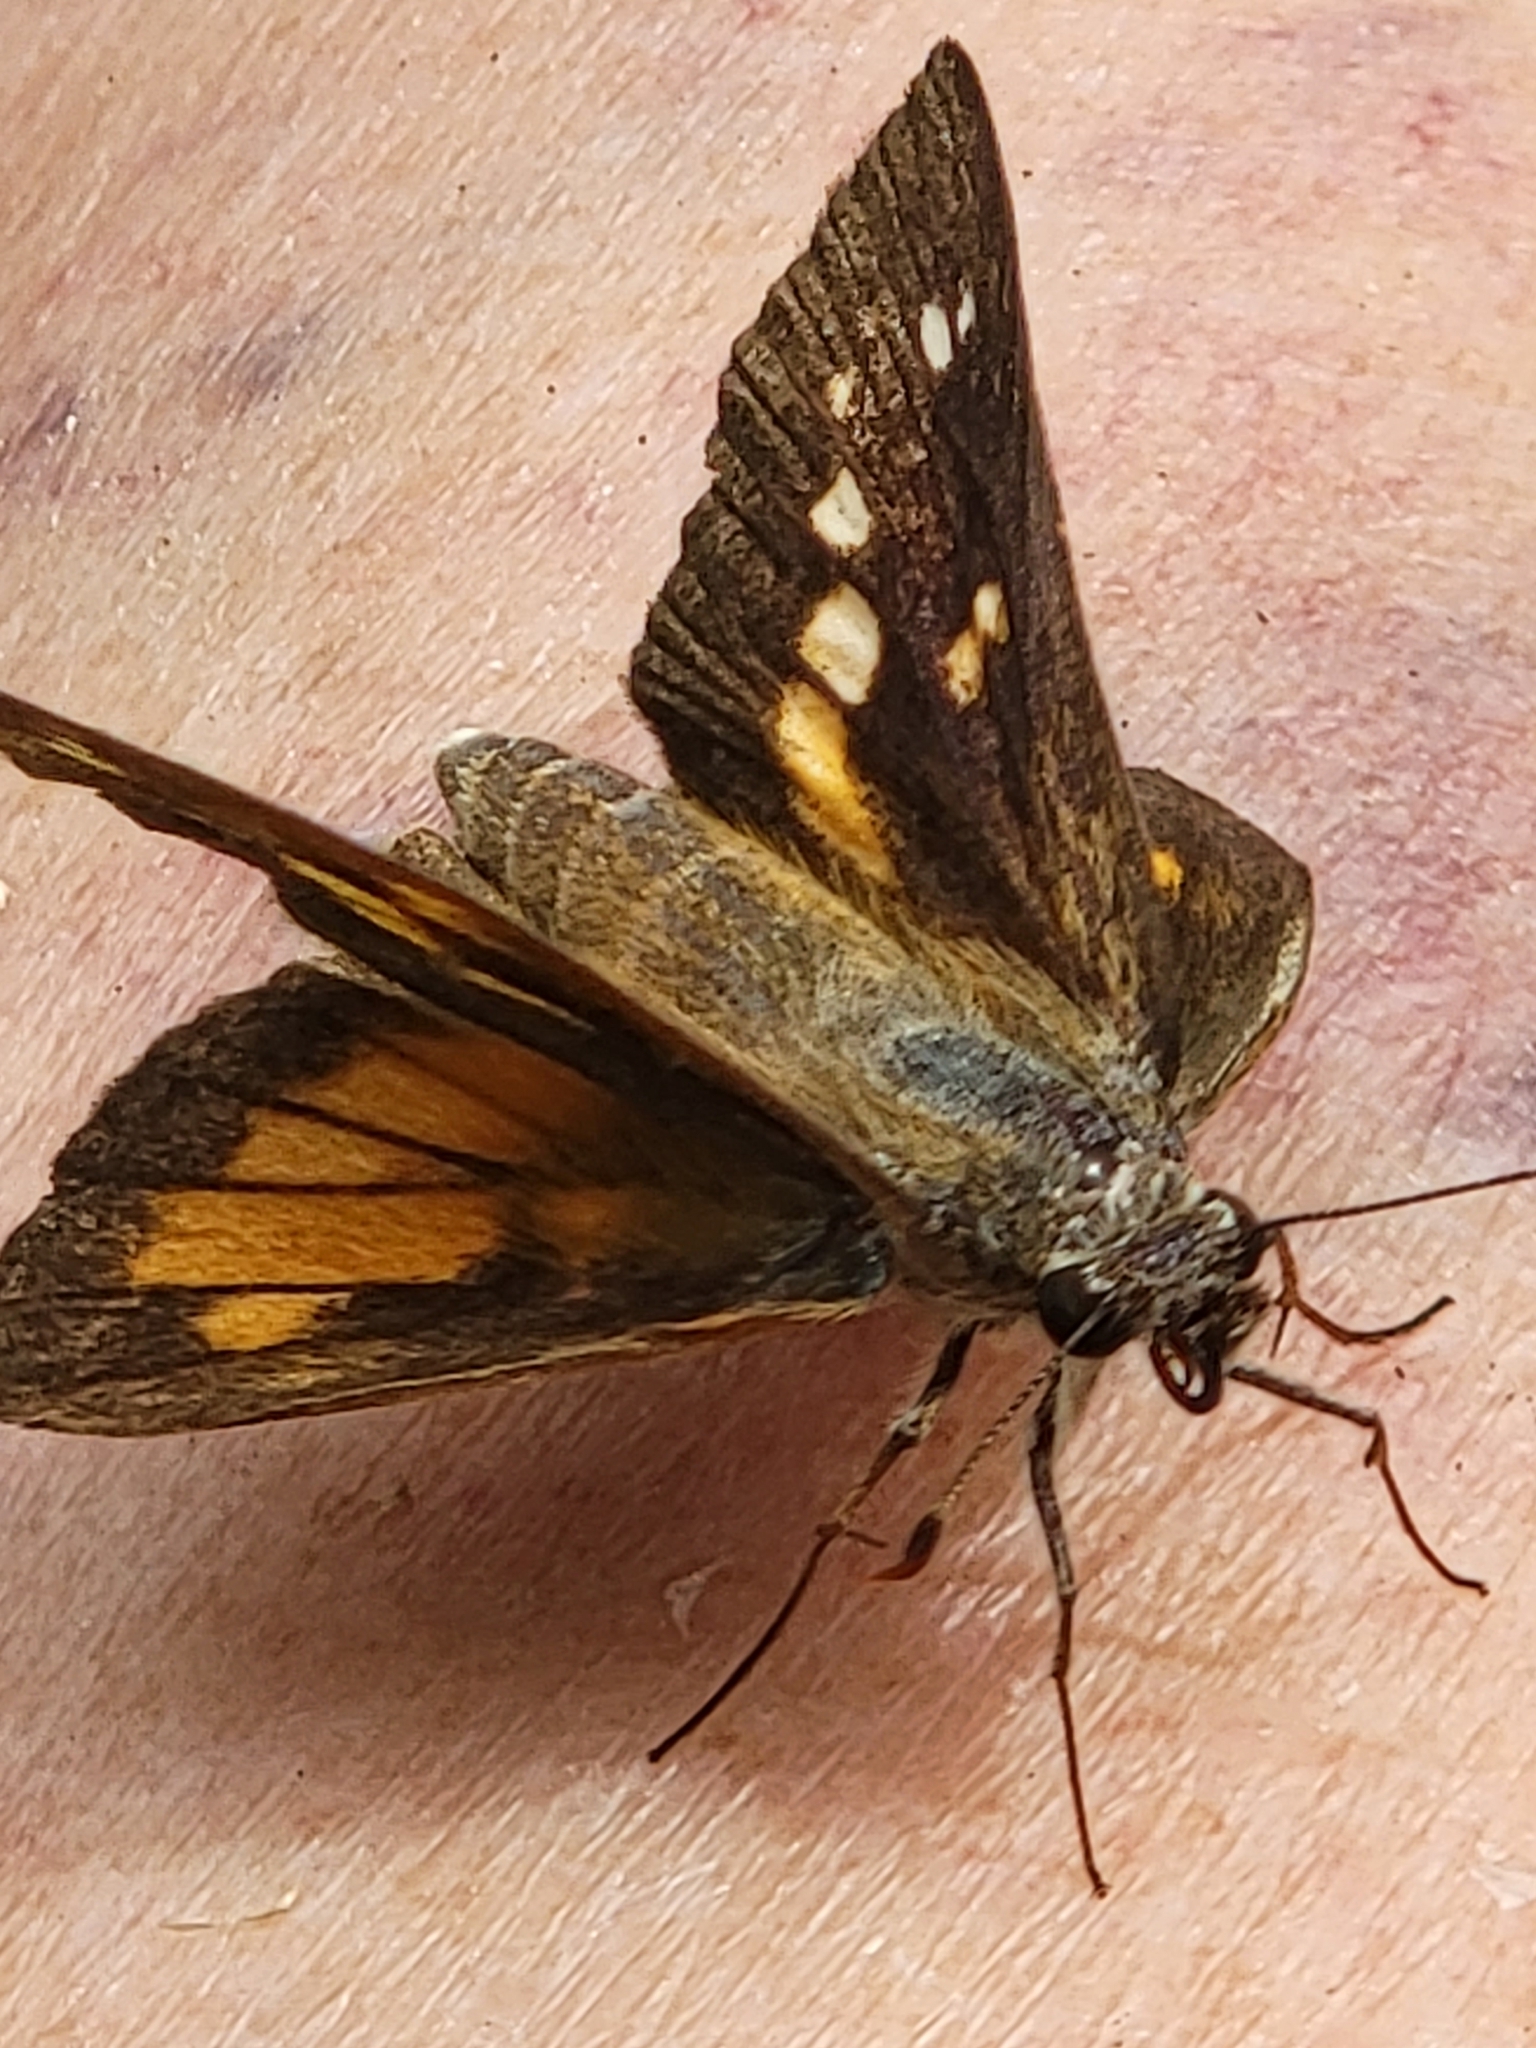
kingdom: Animalia
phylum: Arthropoda
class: Insecta
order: Lepidoptera
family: Hesperiidae
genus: Poanes
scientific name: Poanes viator
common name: Broad-winged skipper
